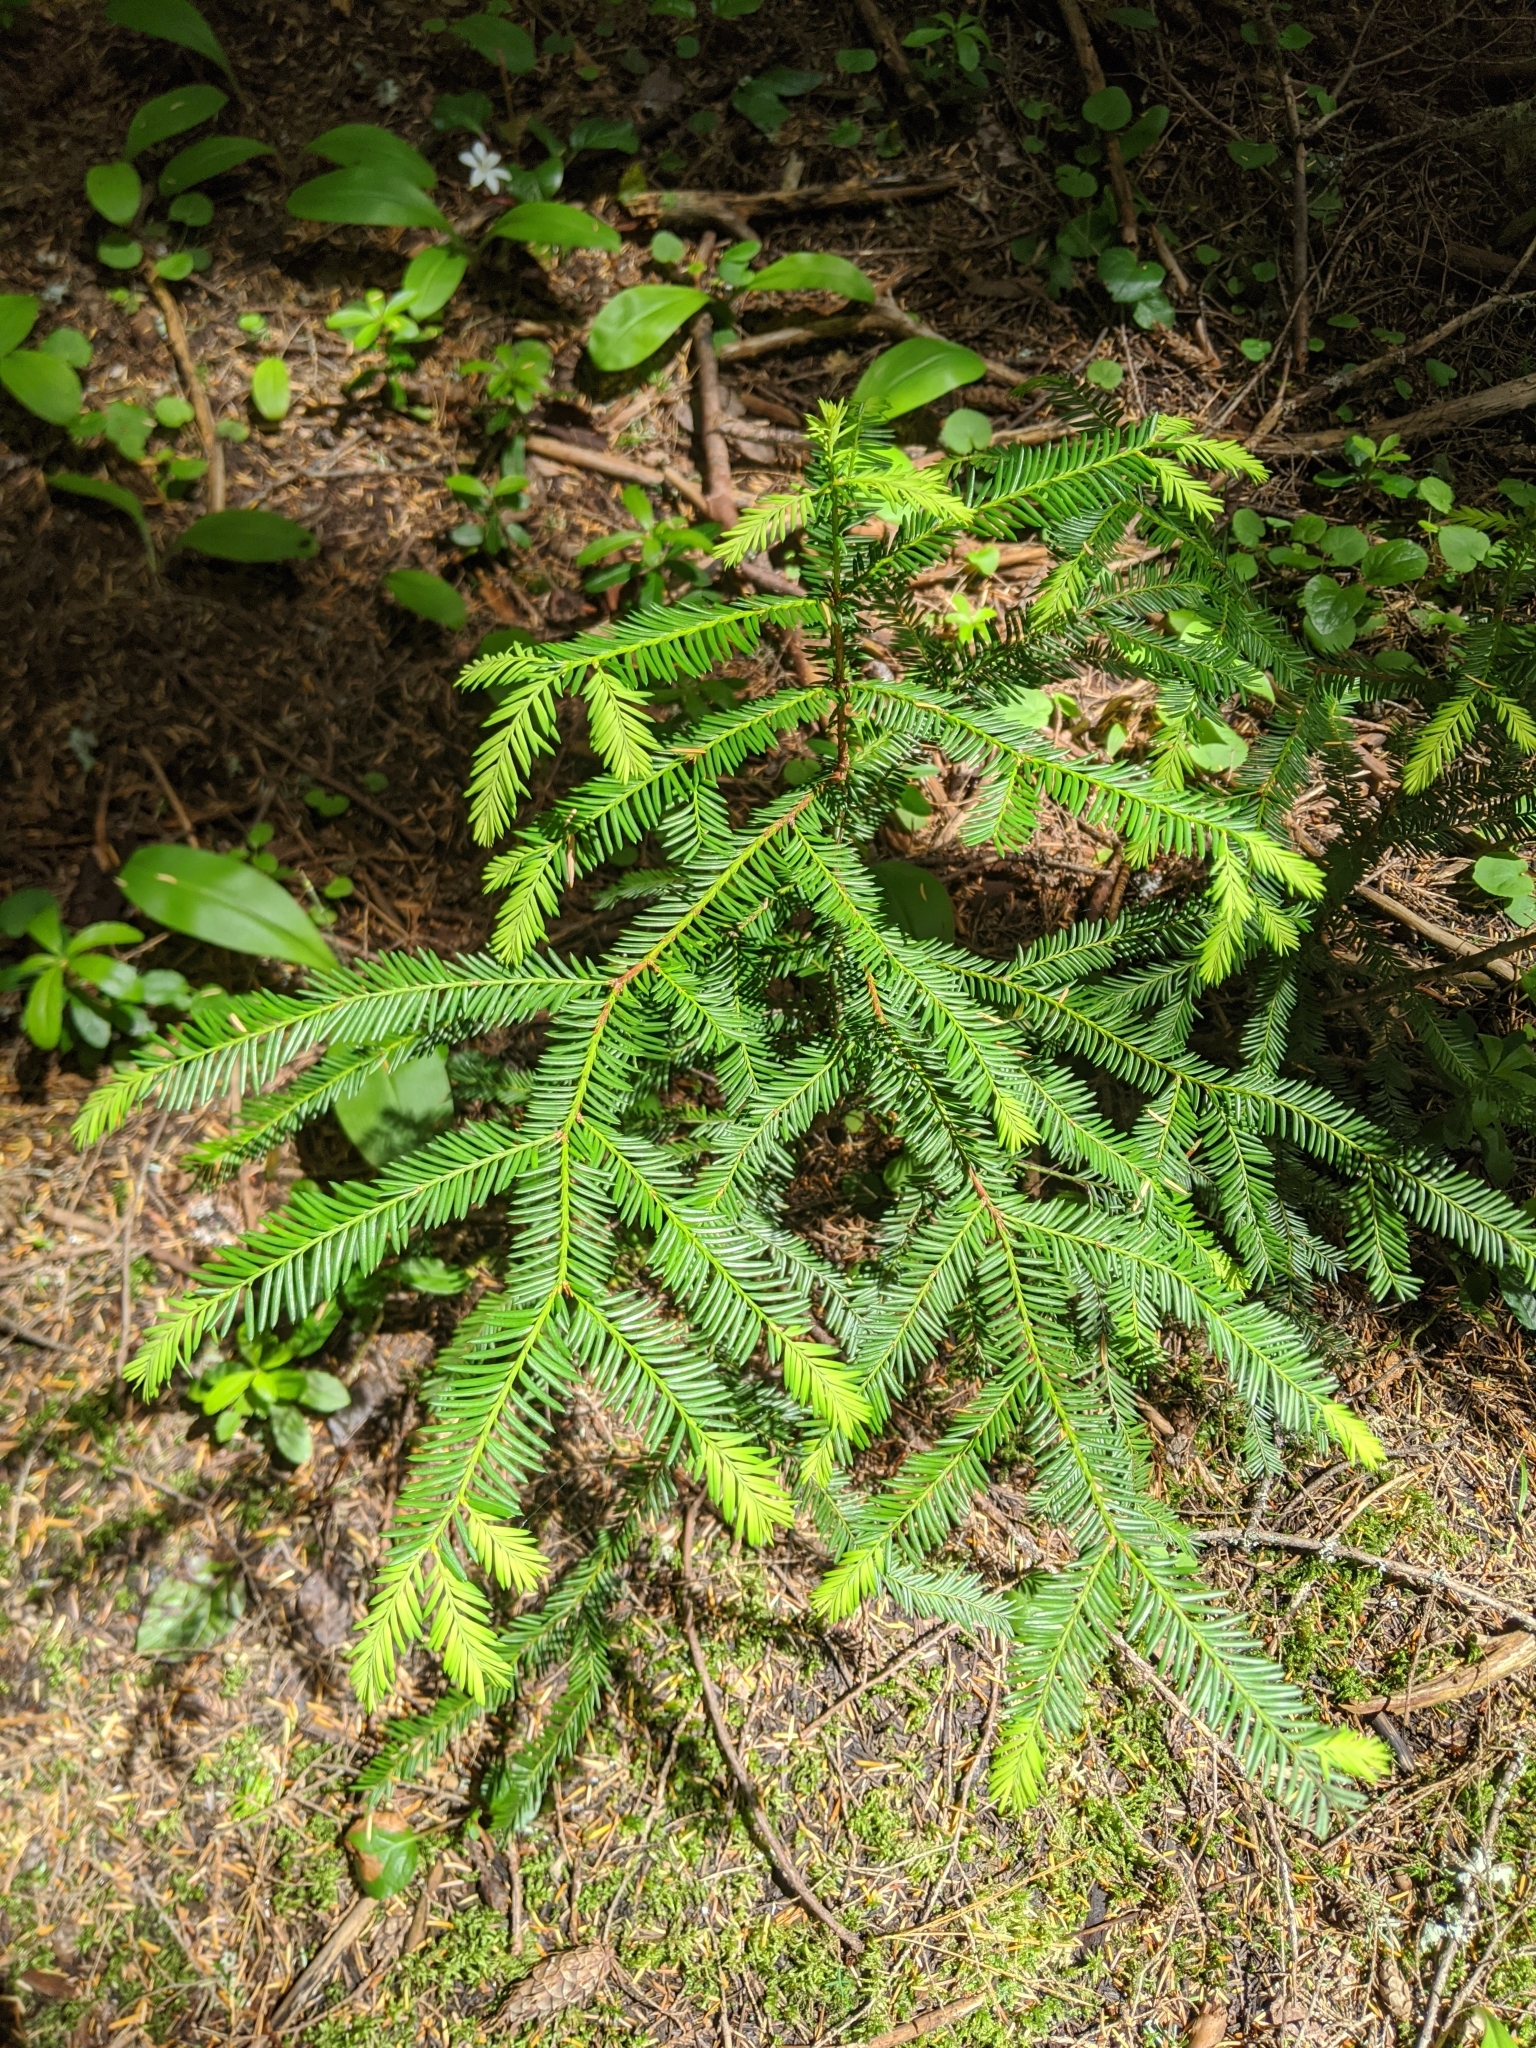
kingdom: Plantae
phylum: Tracheophyta
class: Pinopsida
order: Pinales
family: Taxaceae
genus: Taxus
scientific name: Taxus brevifolia
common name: Pacific yew
